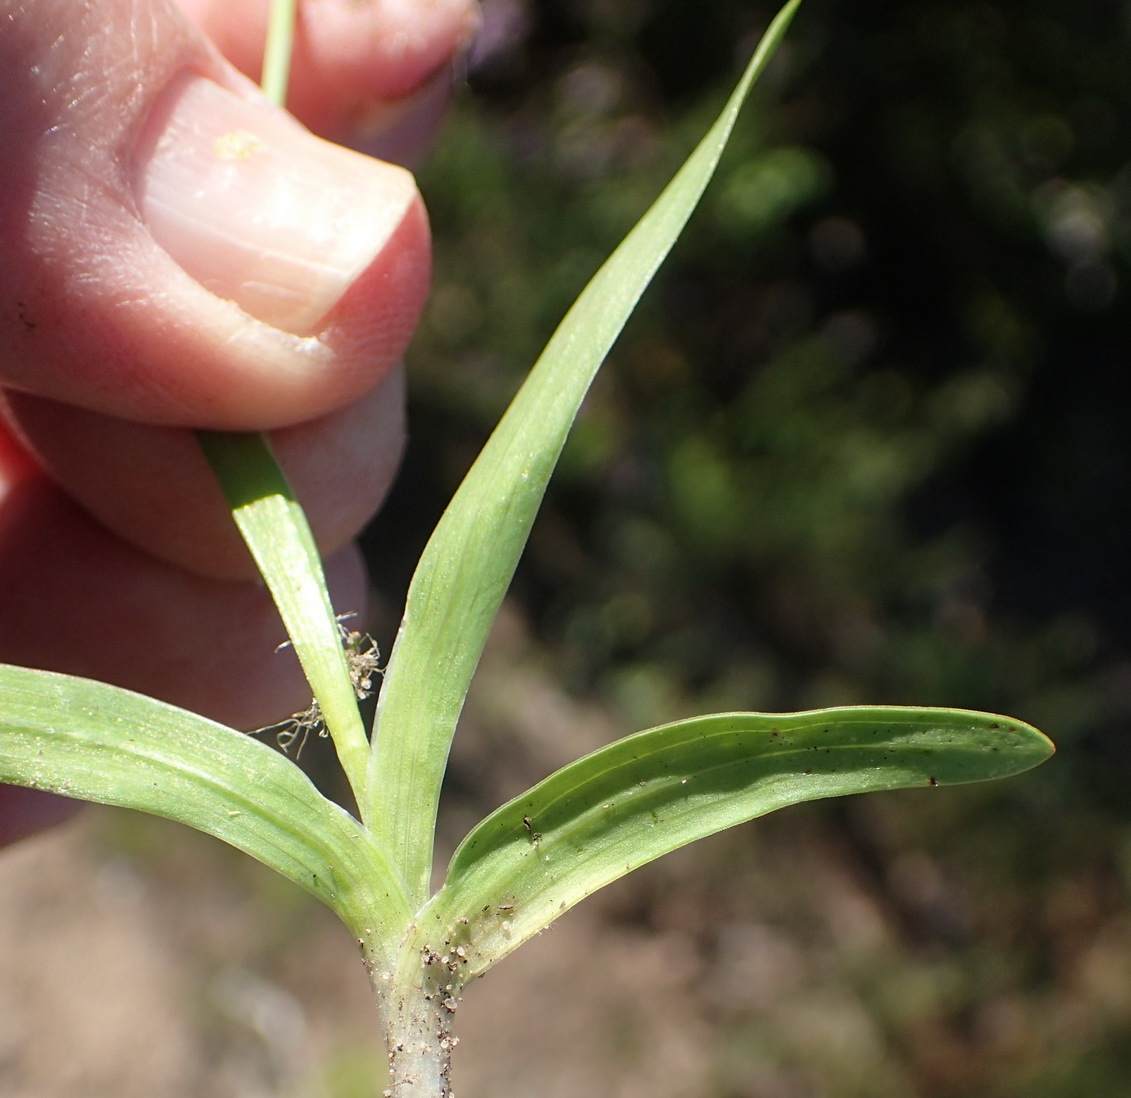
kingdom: Plantae
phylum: Tracheophyta
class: Liliopsida
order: Asparagales
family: Iridaceae
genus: Hesperantha
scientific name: Hesperantha falcata
